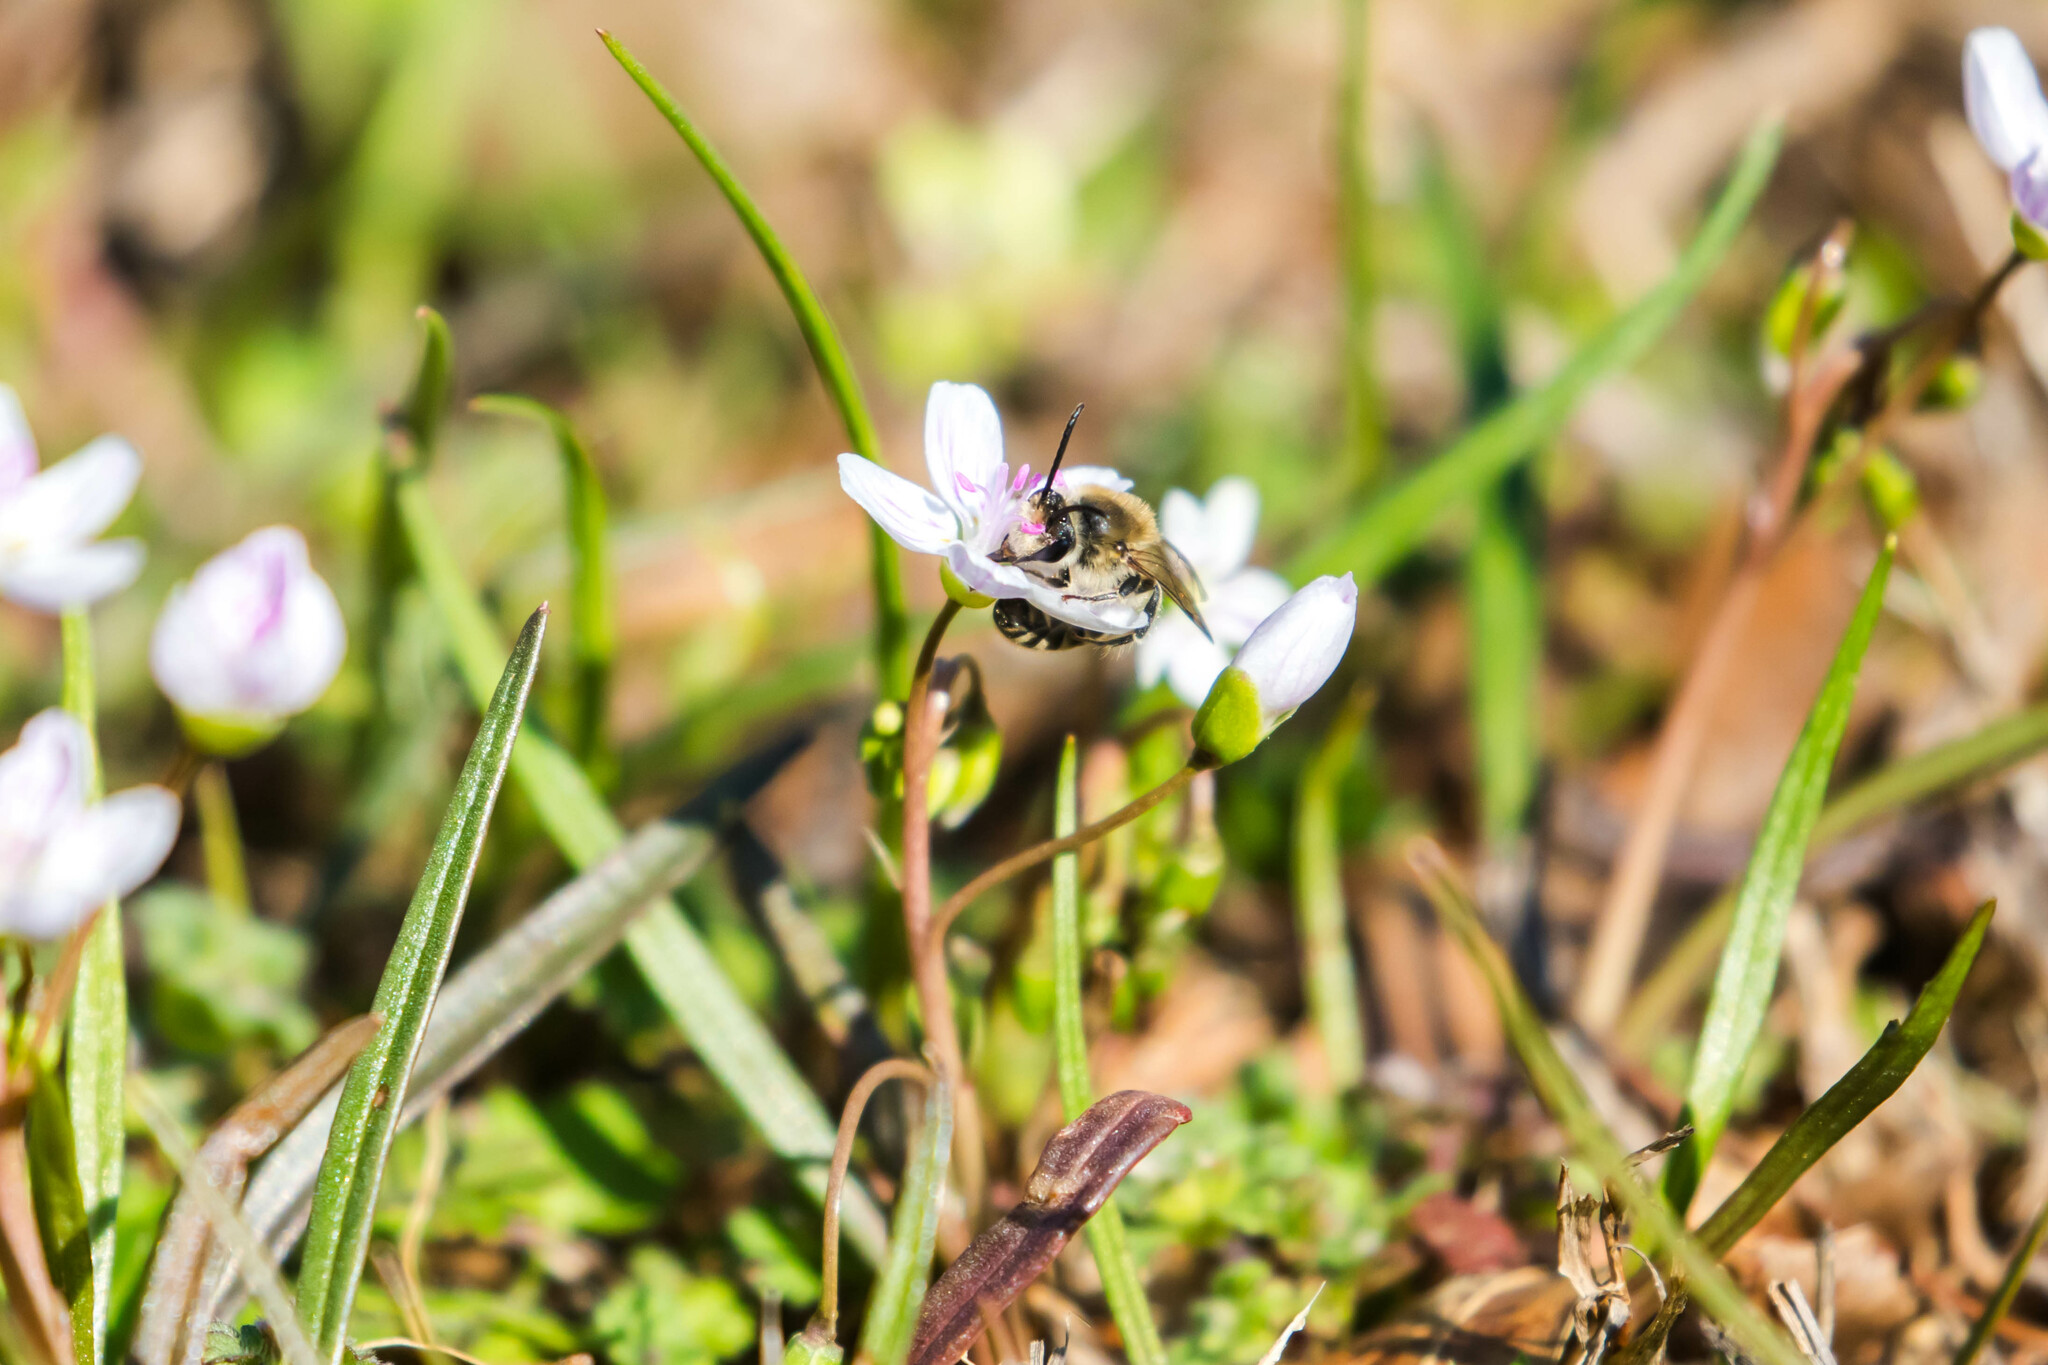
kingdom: Animalia
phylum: Arthropoda
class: Insecta
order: Hymenoptera
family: Colletidae
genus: Colletes
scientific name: Colletes inaequalis
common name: Unequal cellophane bee
